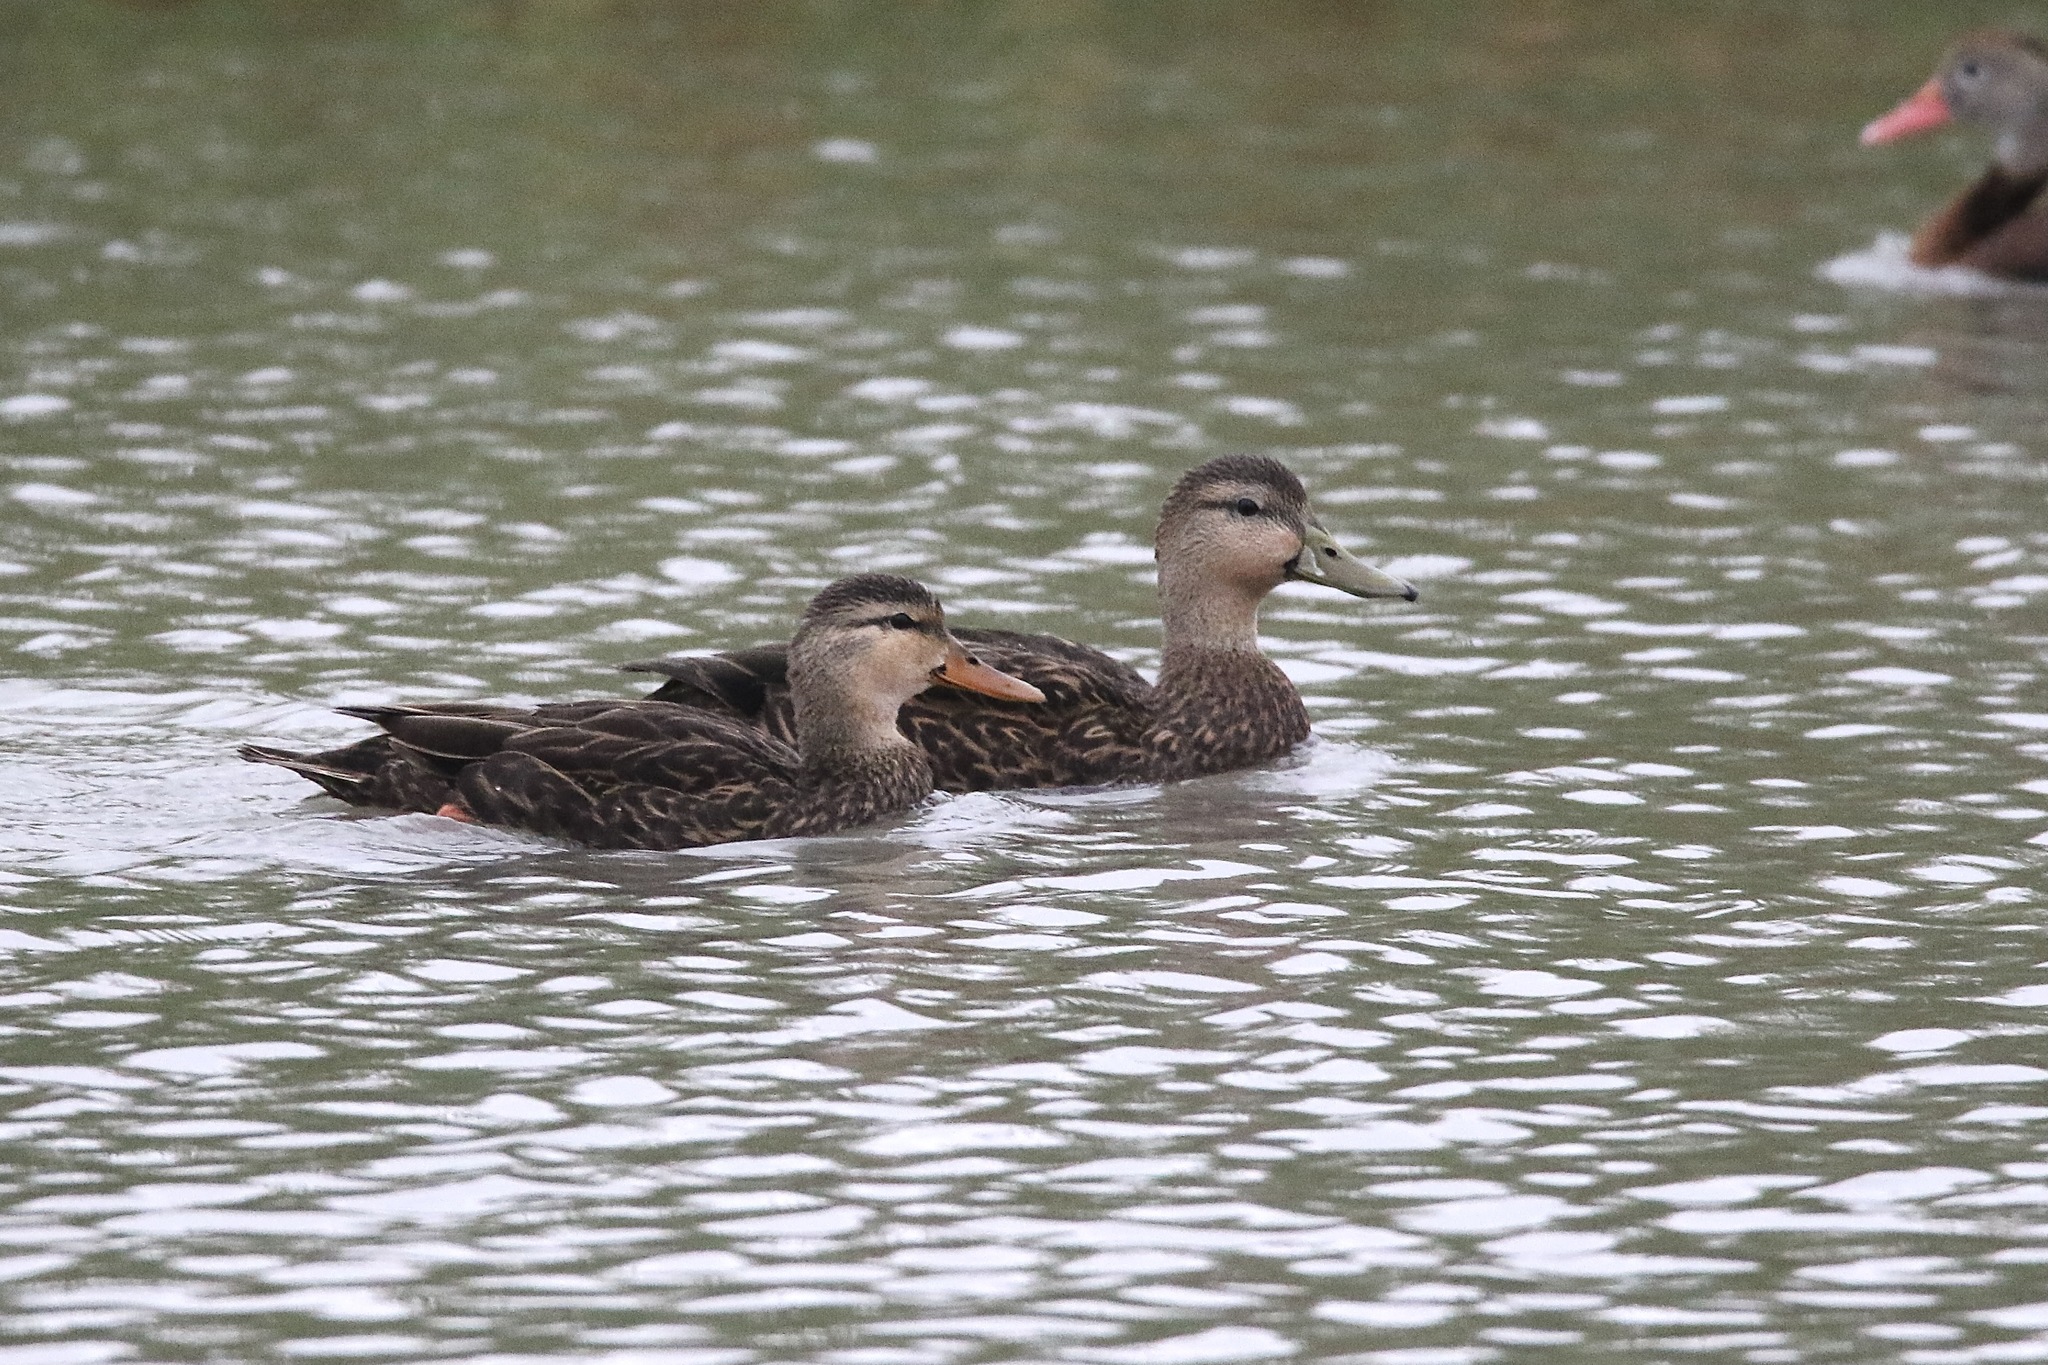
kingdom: Animalia
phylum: Chordata
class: Aves
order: Anseriformes
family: Anatidae
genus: Anas
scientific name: Anas fulvigula
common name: Mottled duck
